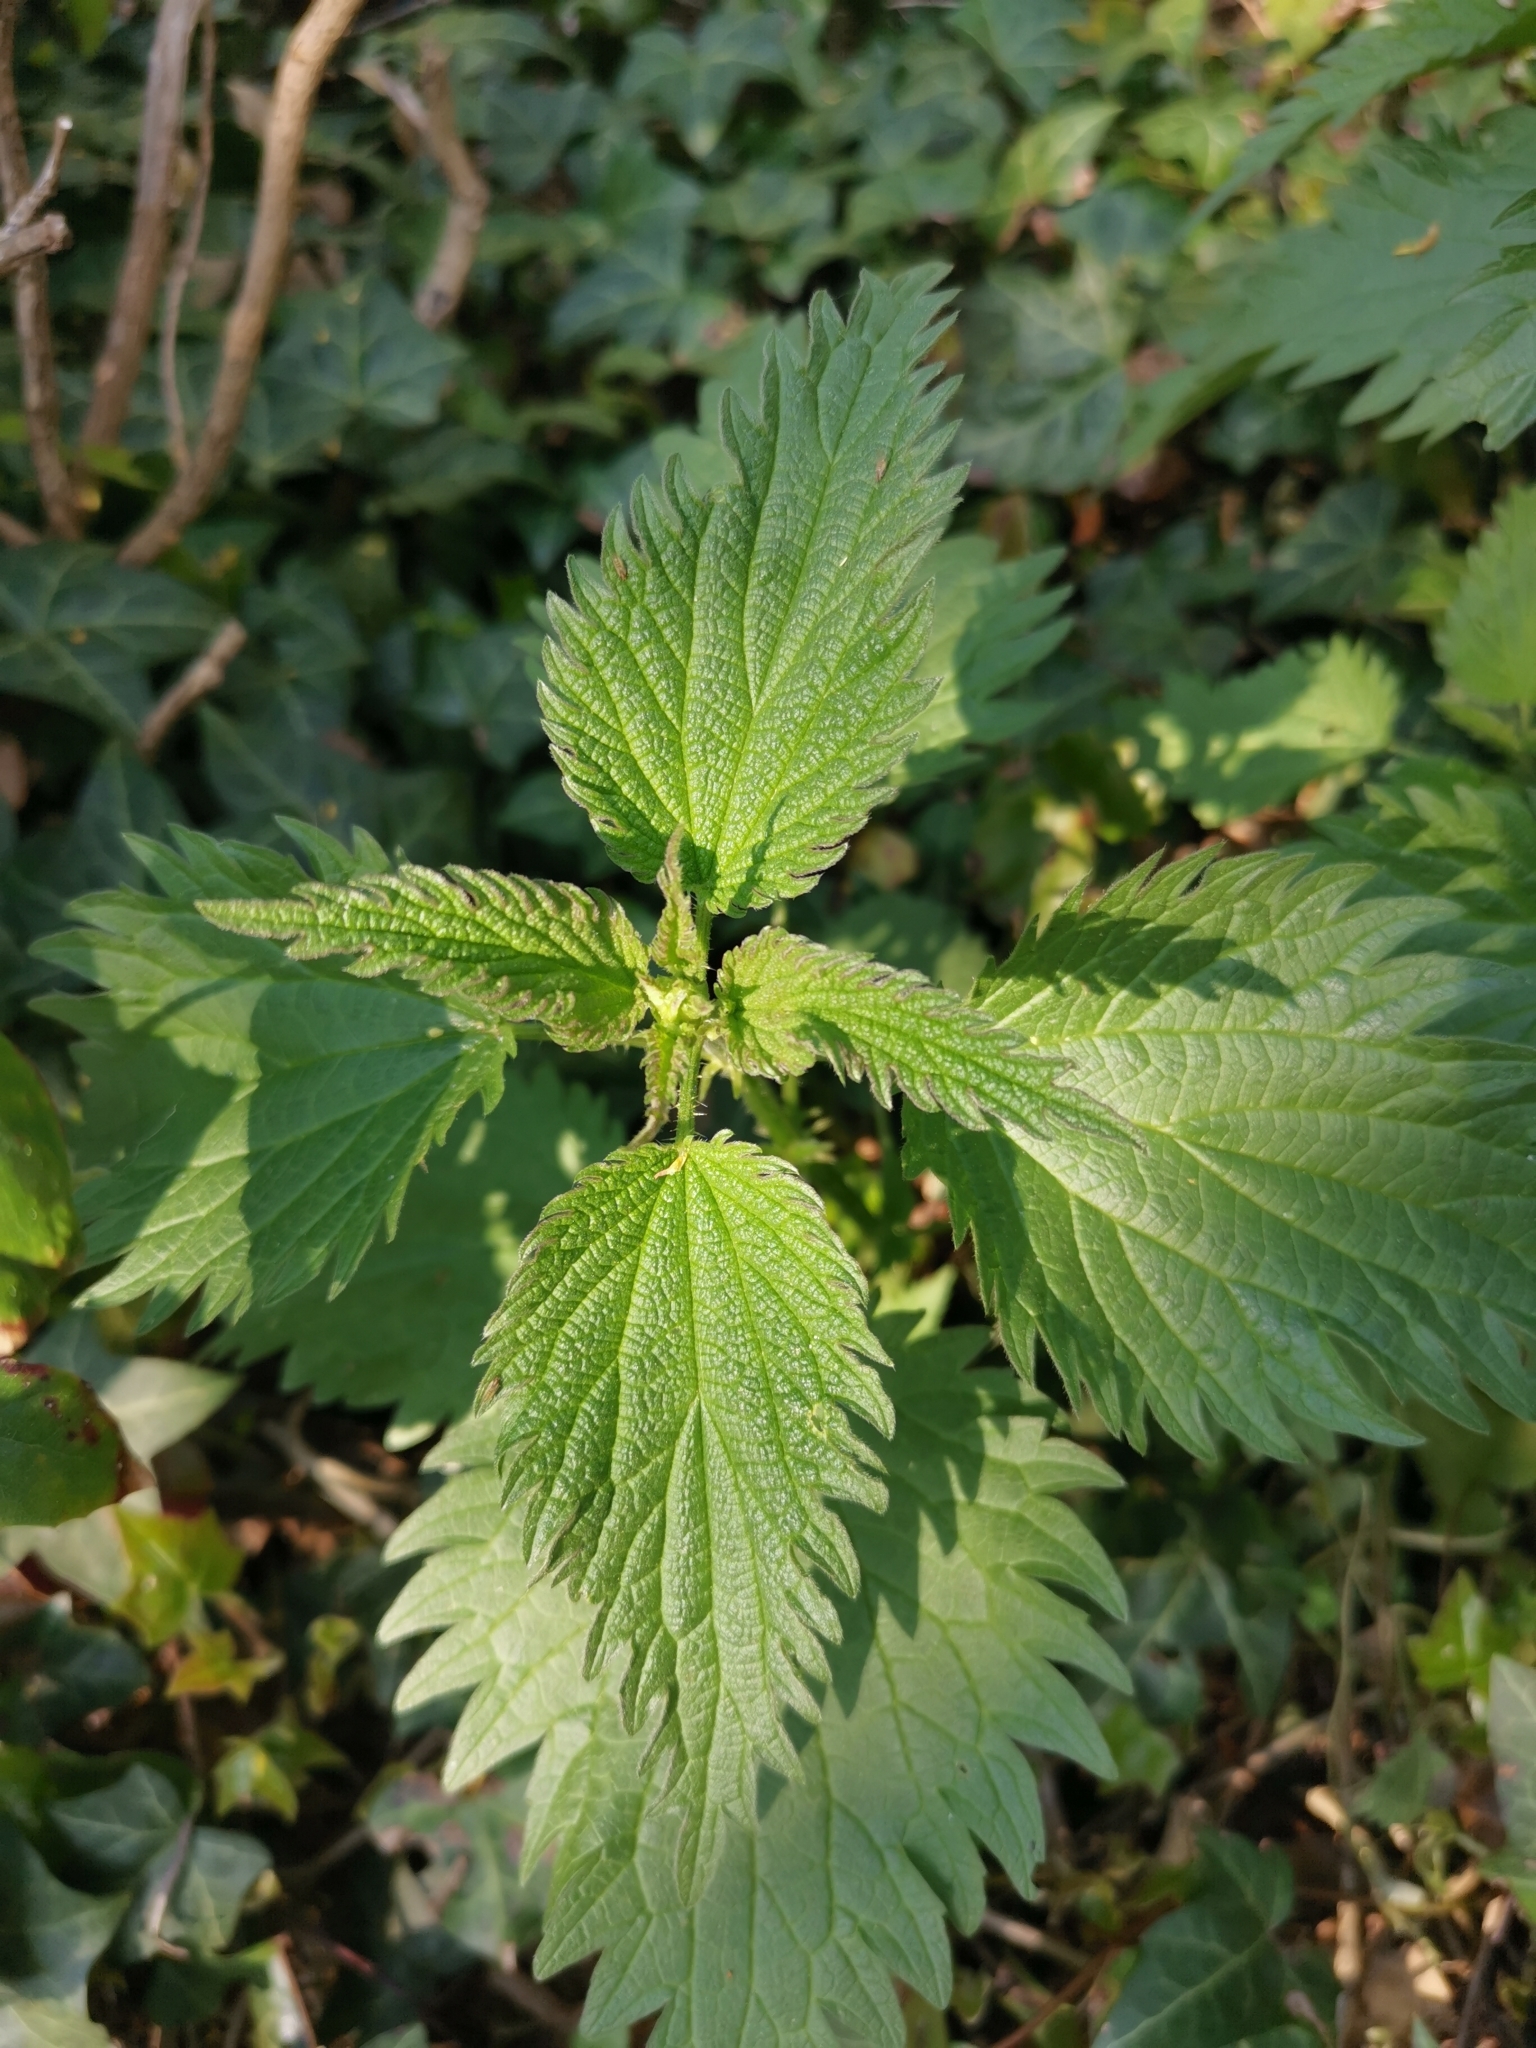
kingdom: Plantae
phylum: Tracheophyta
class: Magnoliopsida
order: Rosales
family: Urticaceae
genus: Urtica
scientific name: Urtica dioica
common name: Common nettle
